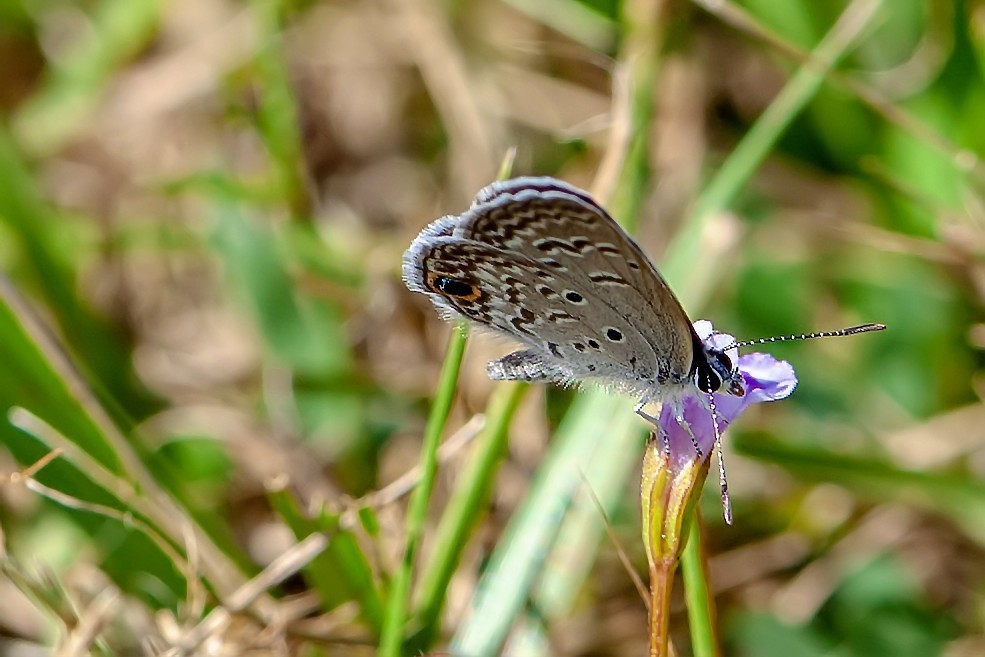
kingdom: Animalia
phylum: Arthropoda
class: Insecta
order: Lepidoptera
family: Lycaenidae
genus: Hemiargus
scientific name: Hemiargus ceraunus
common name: Ceraunus blue
